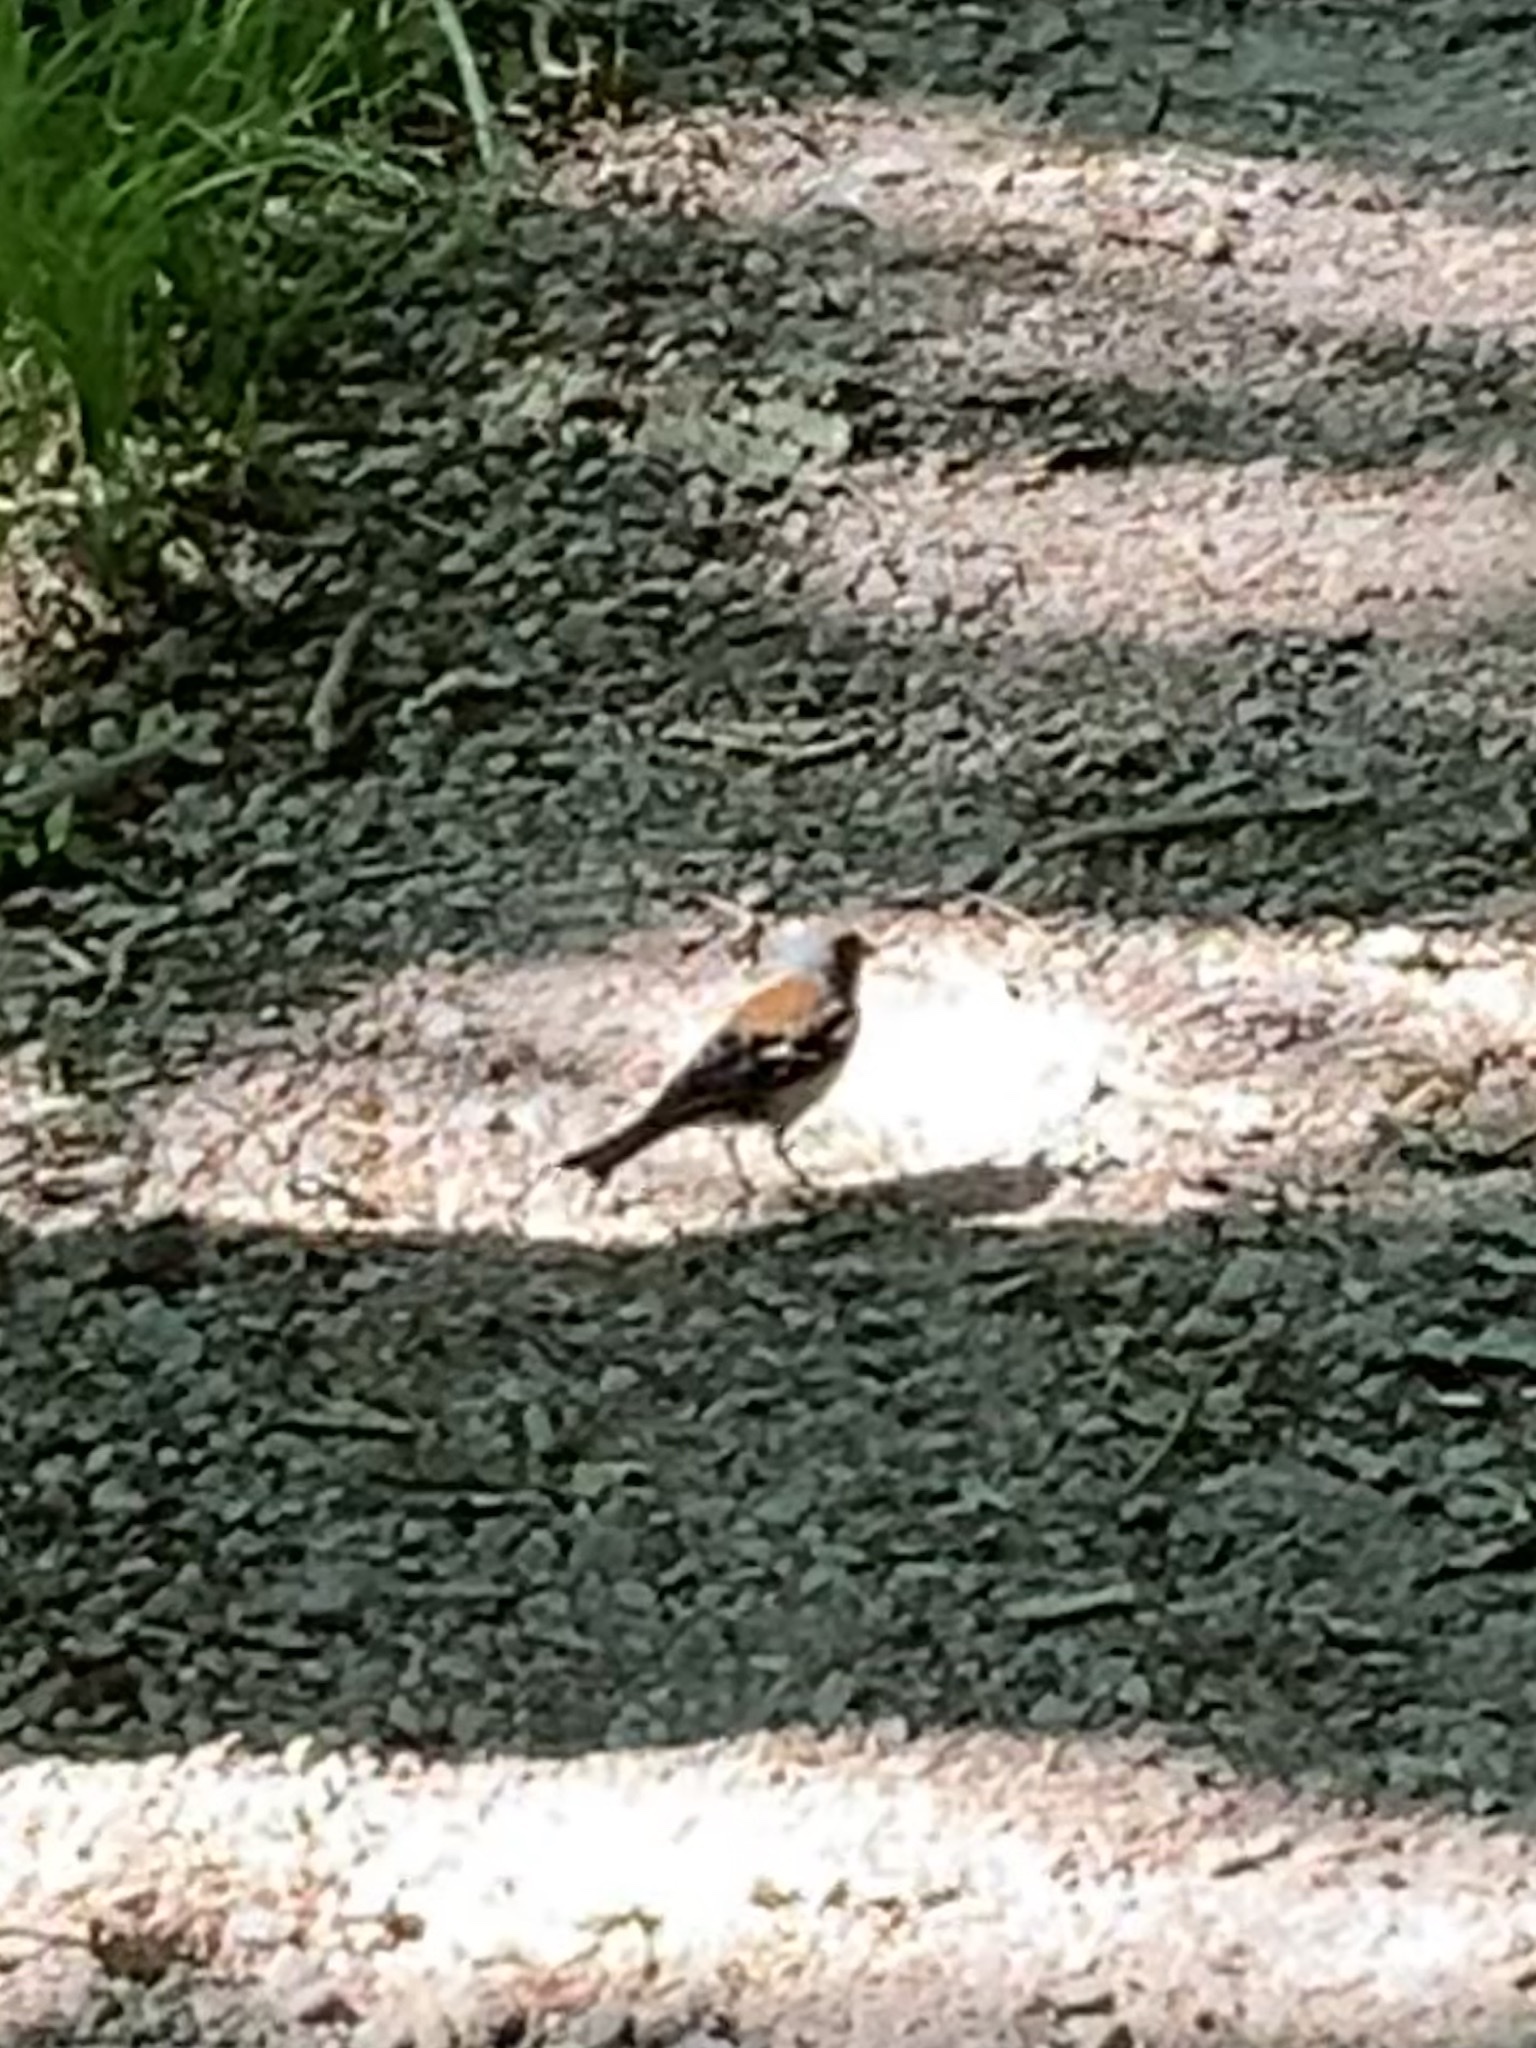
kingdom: Animalia
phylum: Chordata
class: Aves
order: Passeriformes
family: Fringillidae
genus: Fringilla
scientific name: Fringilla coelebs
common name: Common chaffinch
